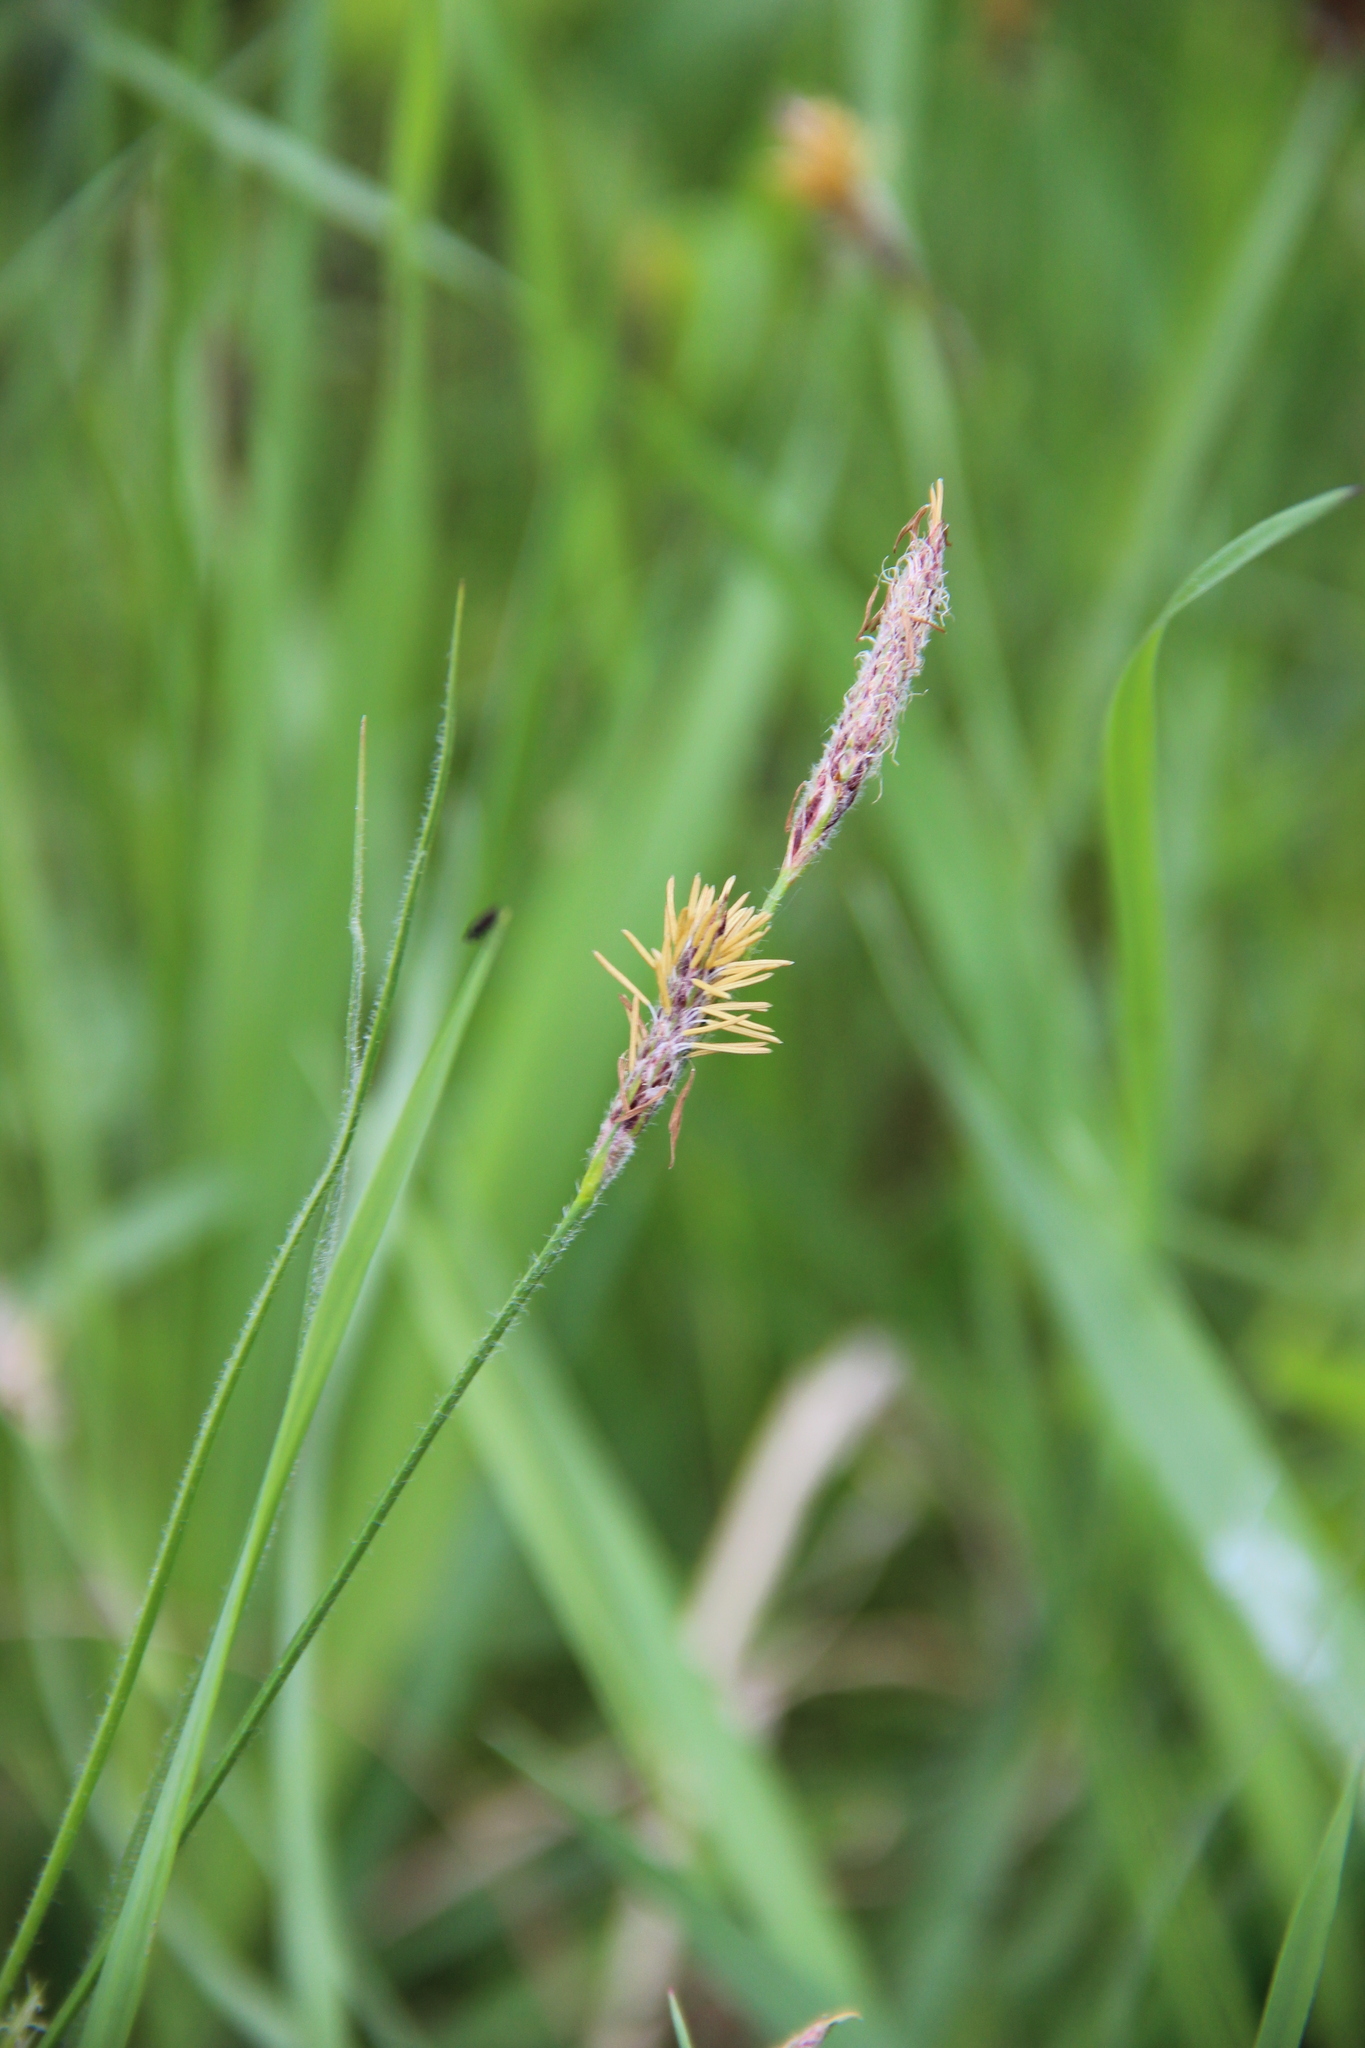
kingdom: Plantae
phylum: Tracheophyta
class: Liliopsida
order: Poales
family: Cyperaceae
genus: Carex
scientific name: Carex hirta
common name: Hairy sedge
